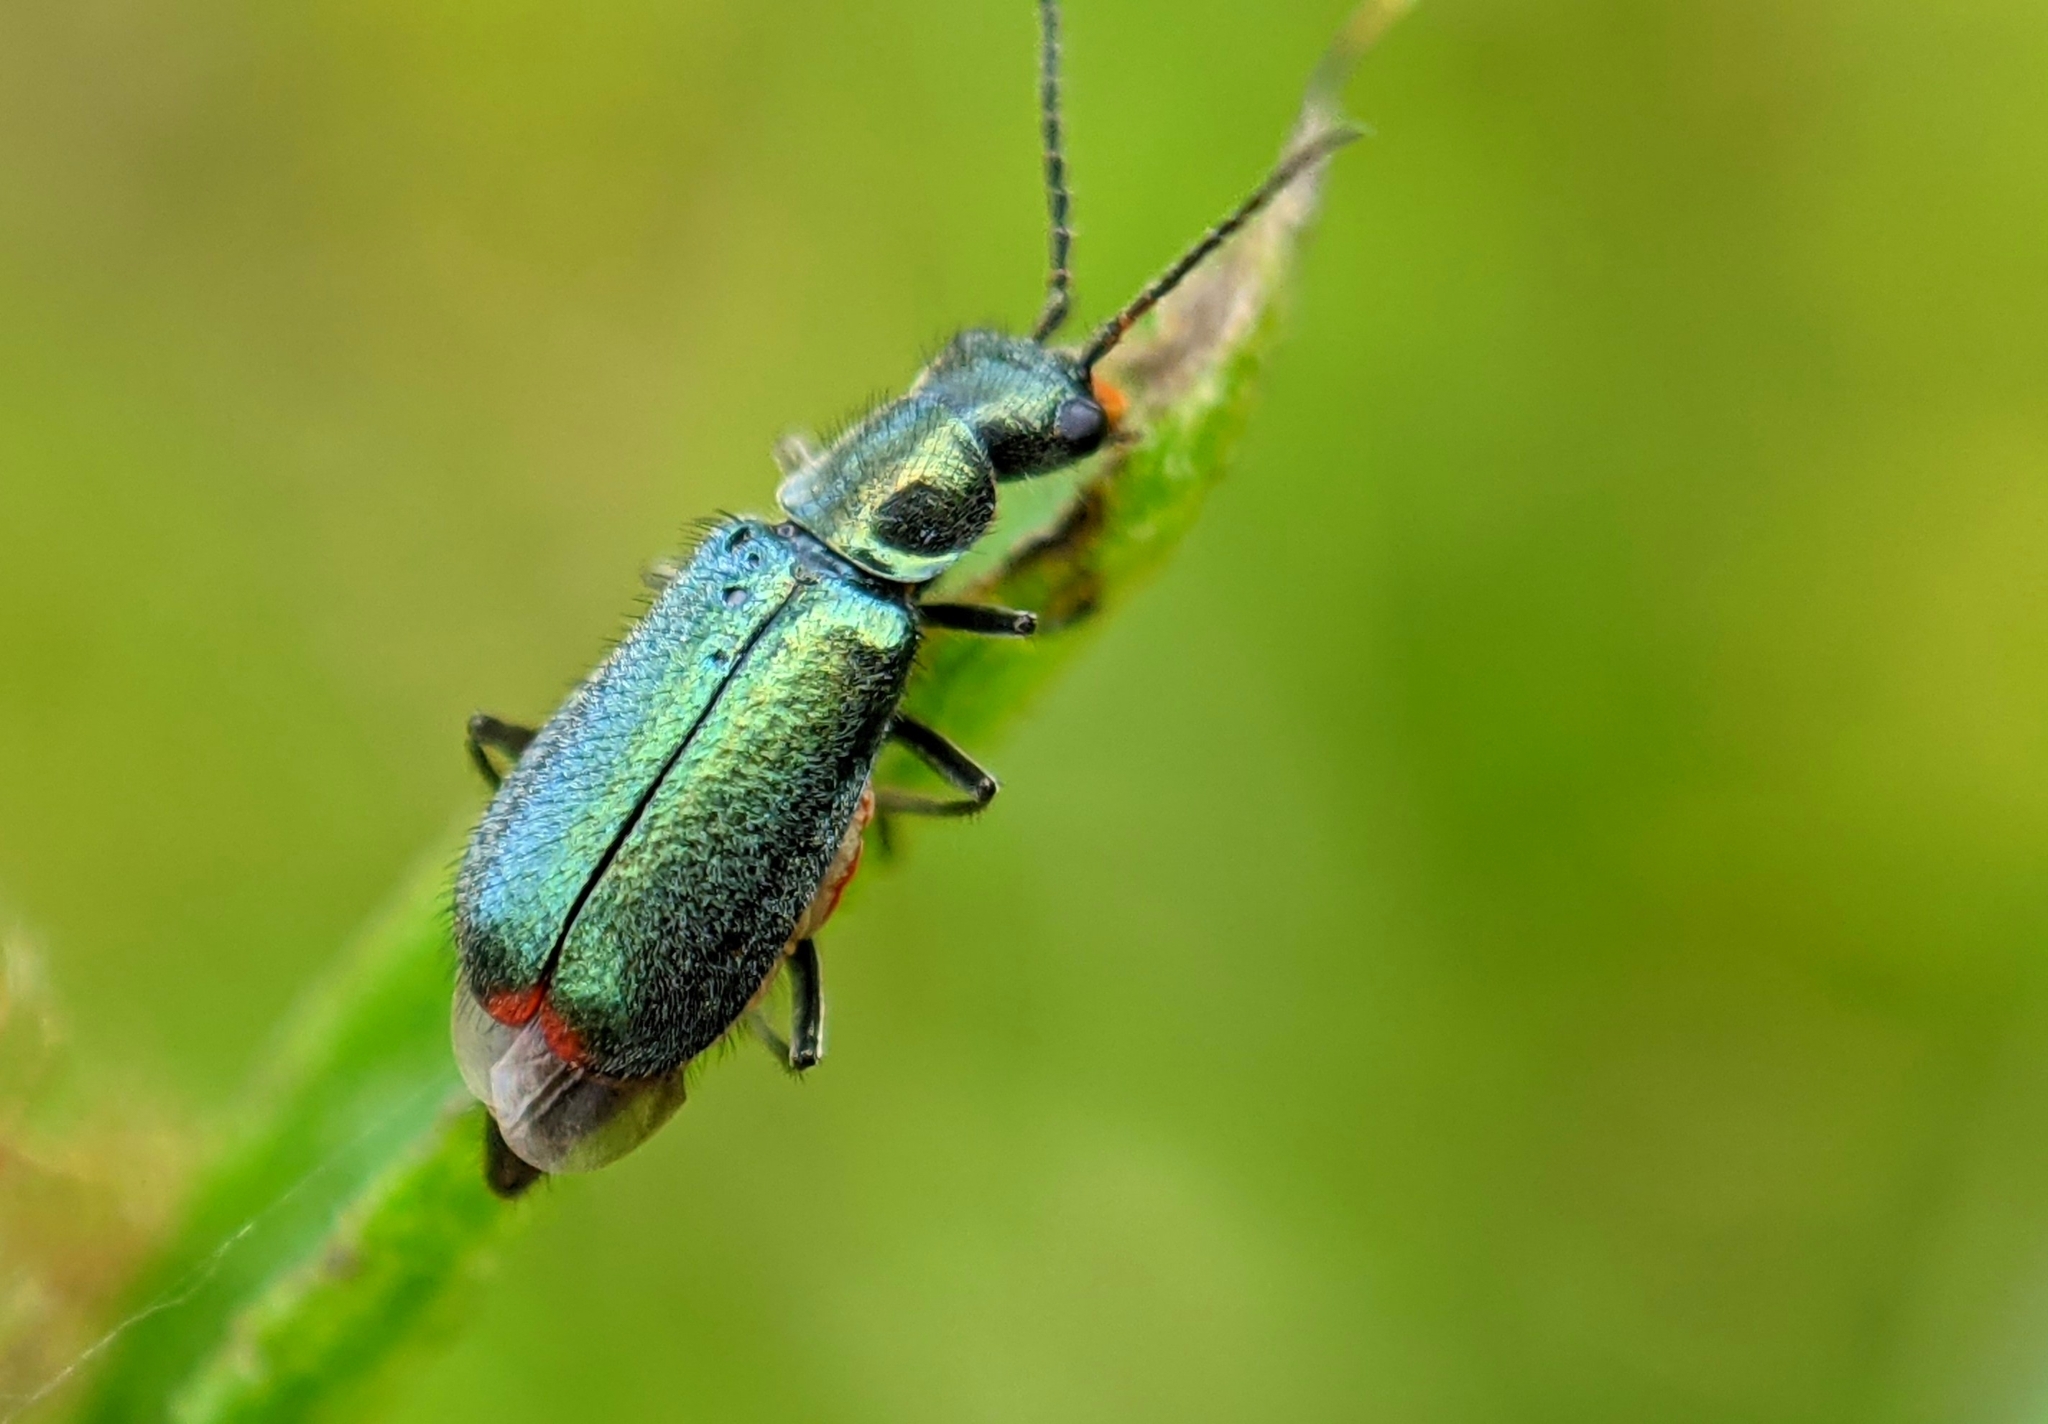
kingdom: Animalia
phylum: Arthropoda
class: Insecta
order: Coleoptera
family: Malachiidae
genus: Cordylepherus
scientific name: Cordylepherus viridis
